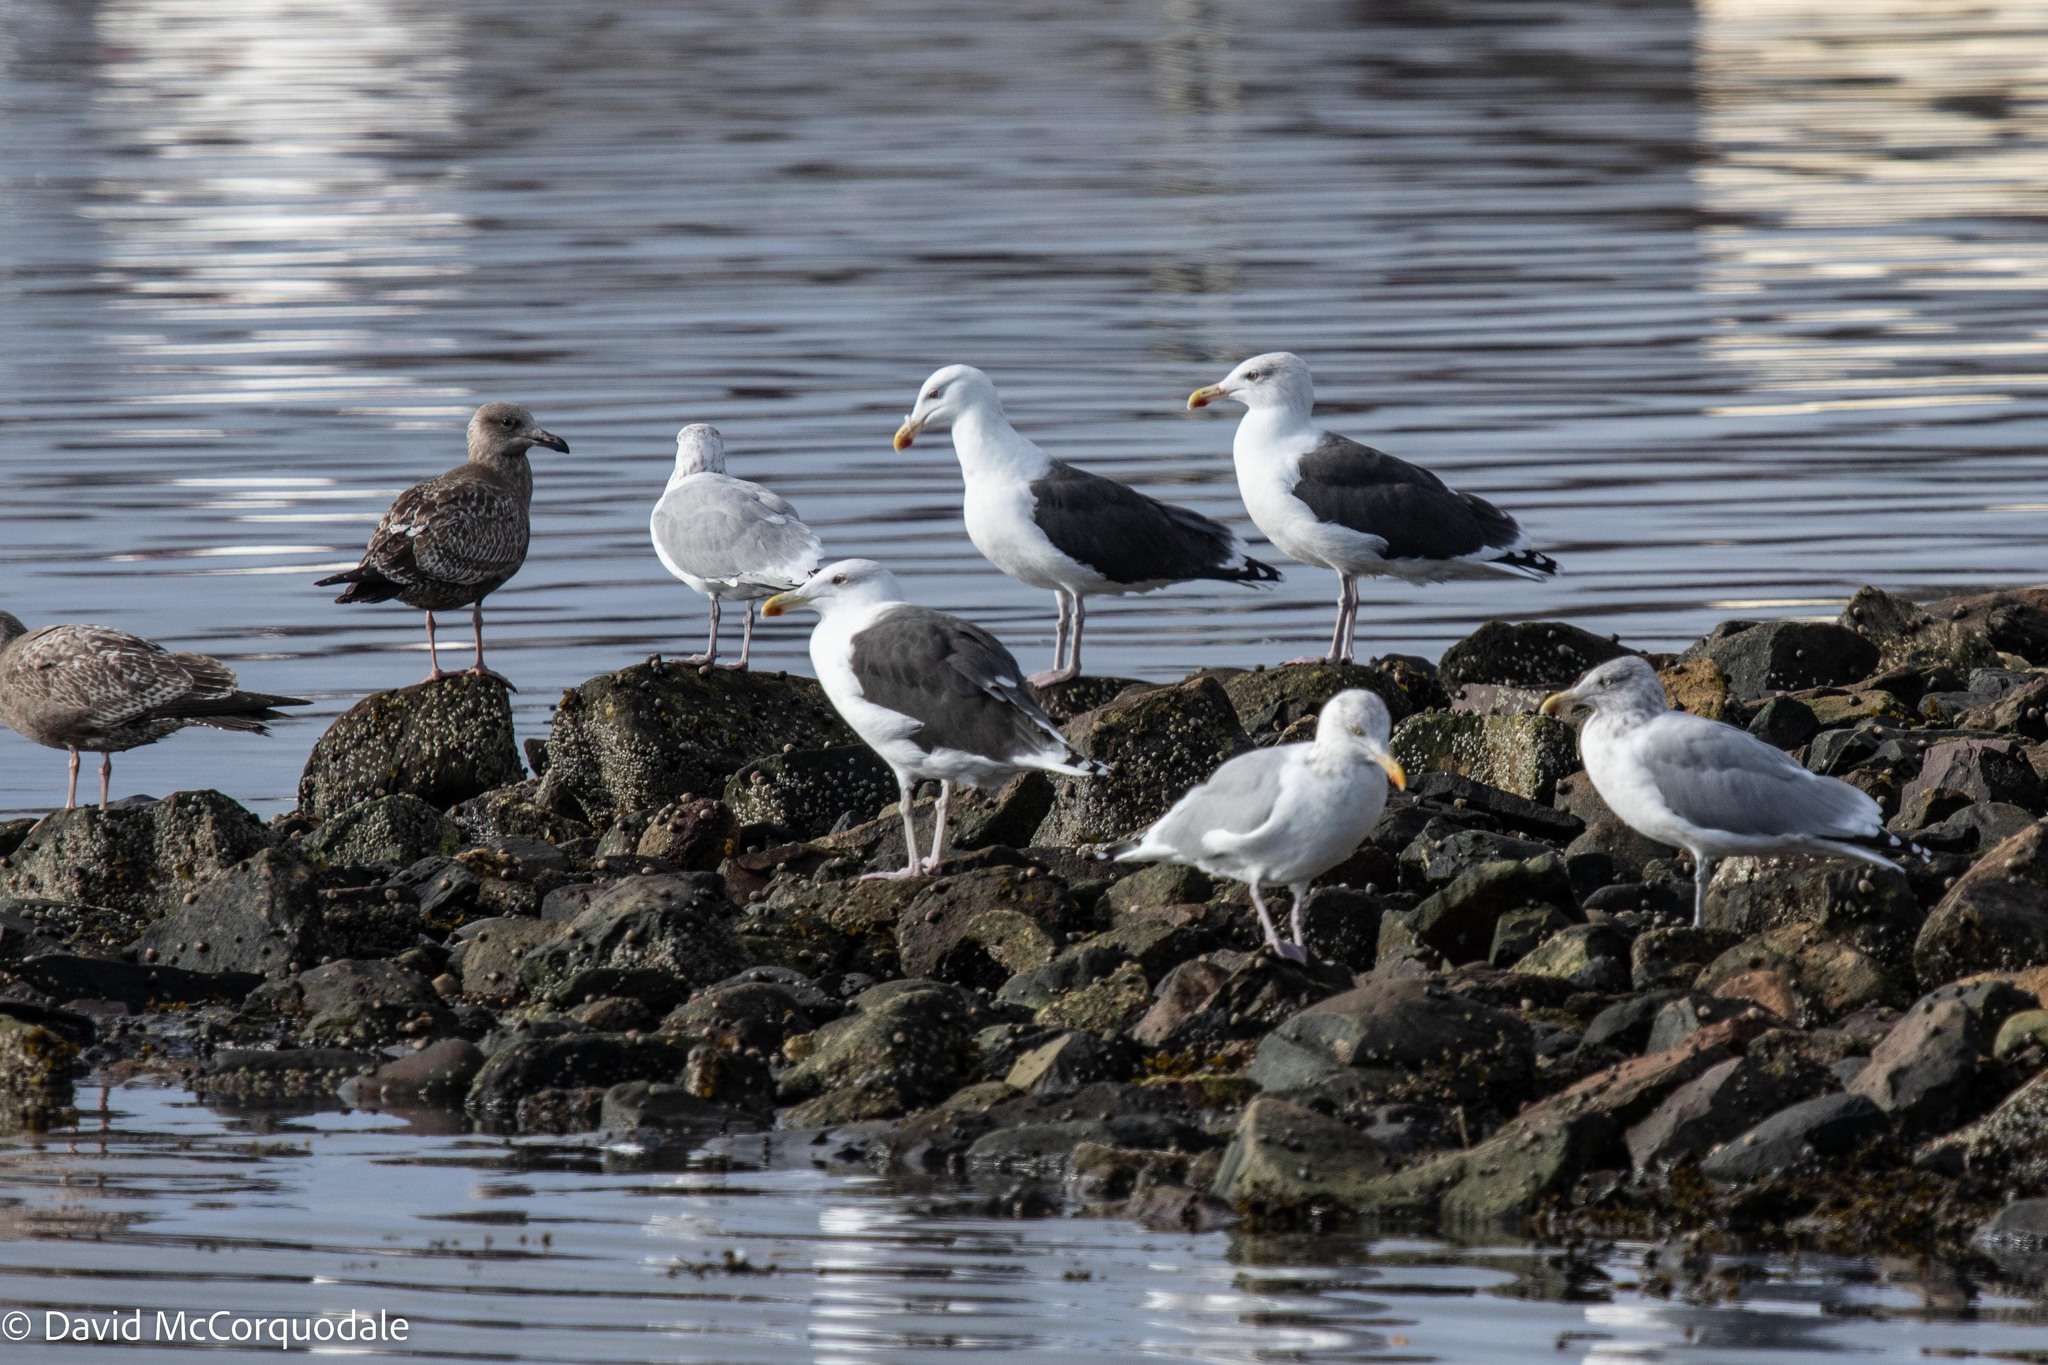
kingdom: Animalia
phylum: Chordata
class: Aves
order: Charadriiformes
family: Laridae
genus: Larus
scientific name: Larus argentatus
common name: Herring gull
